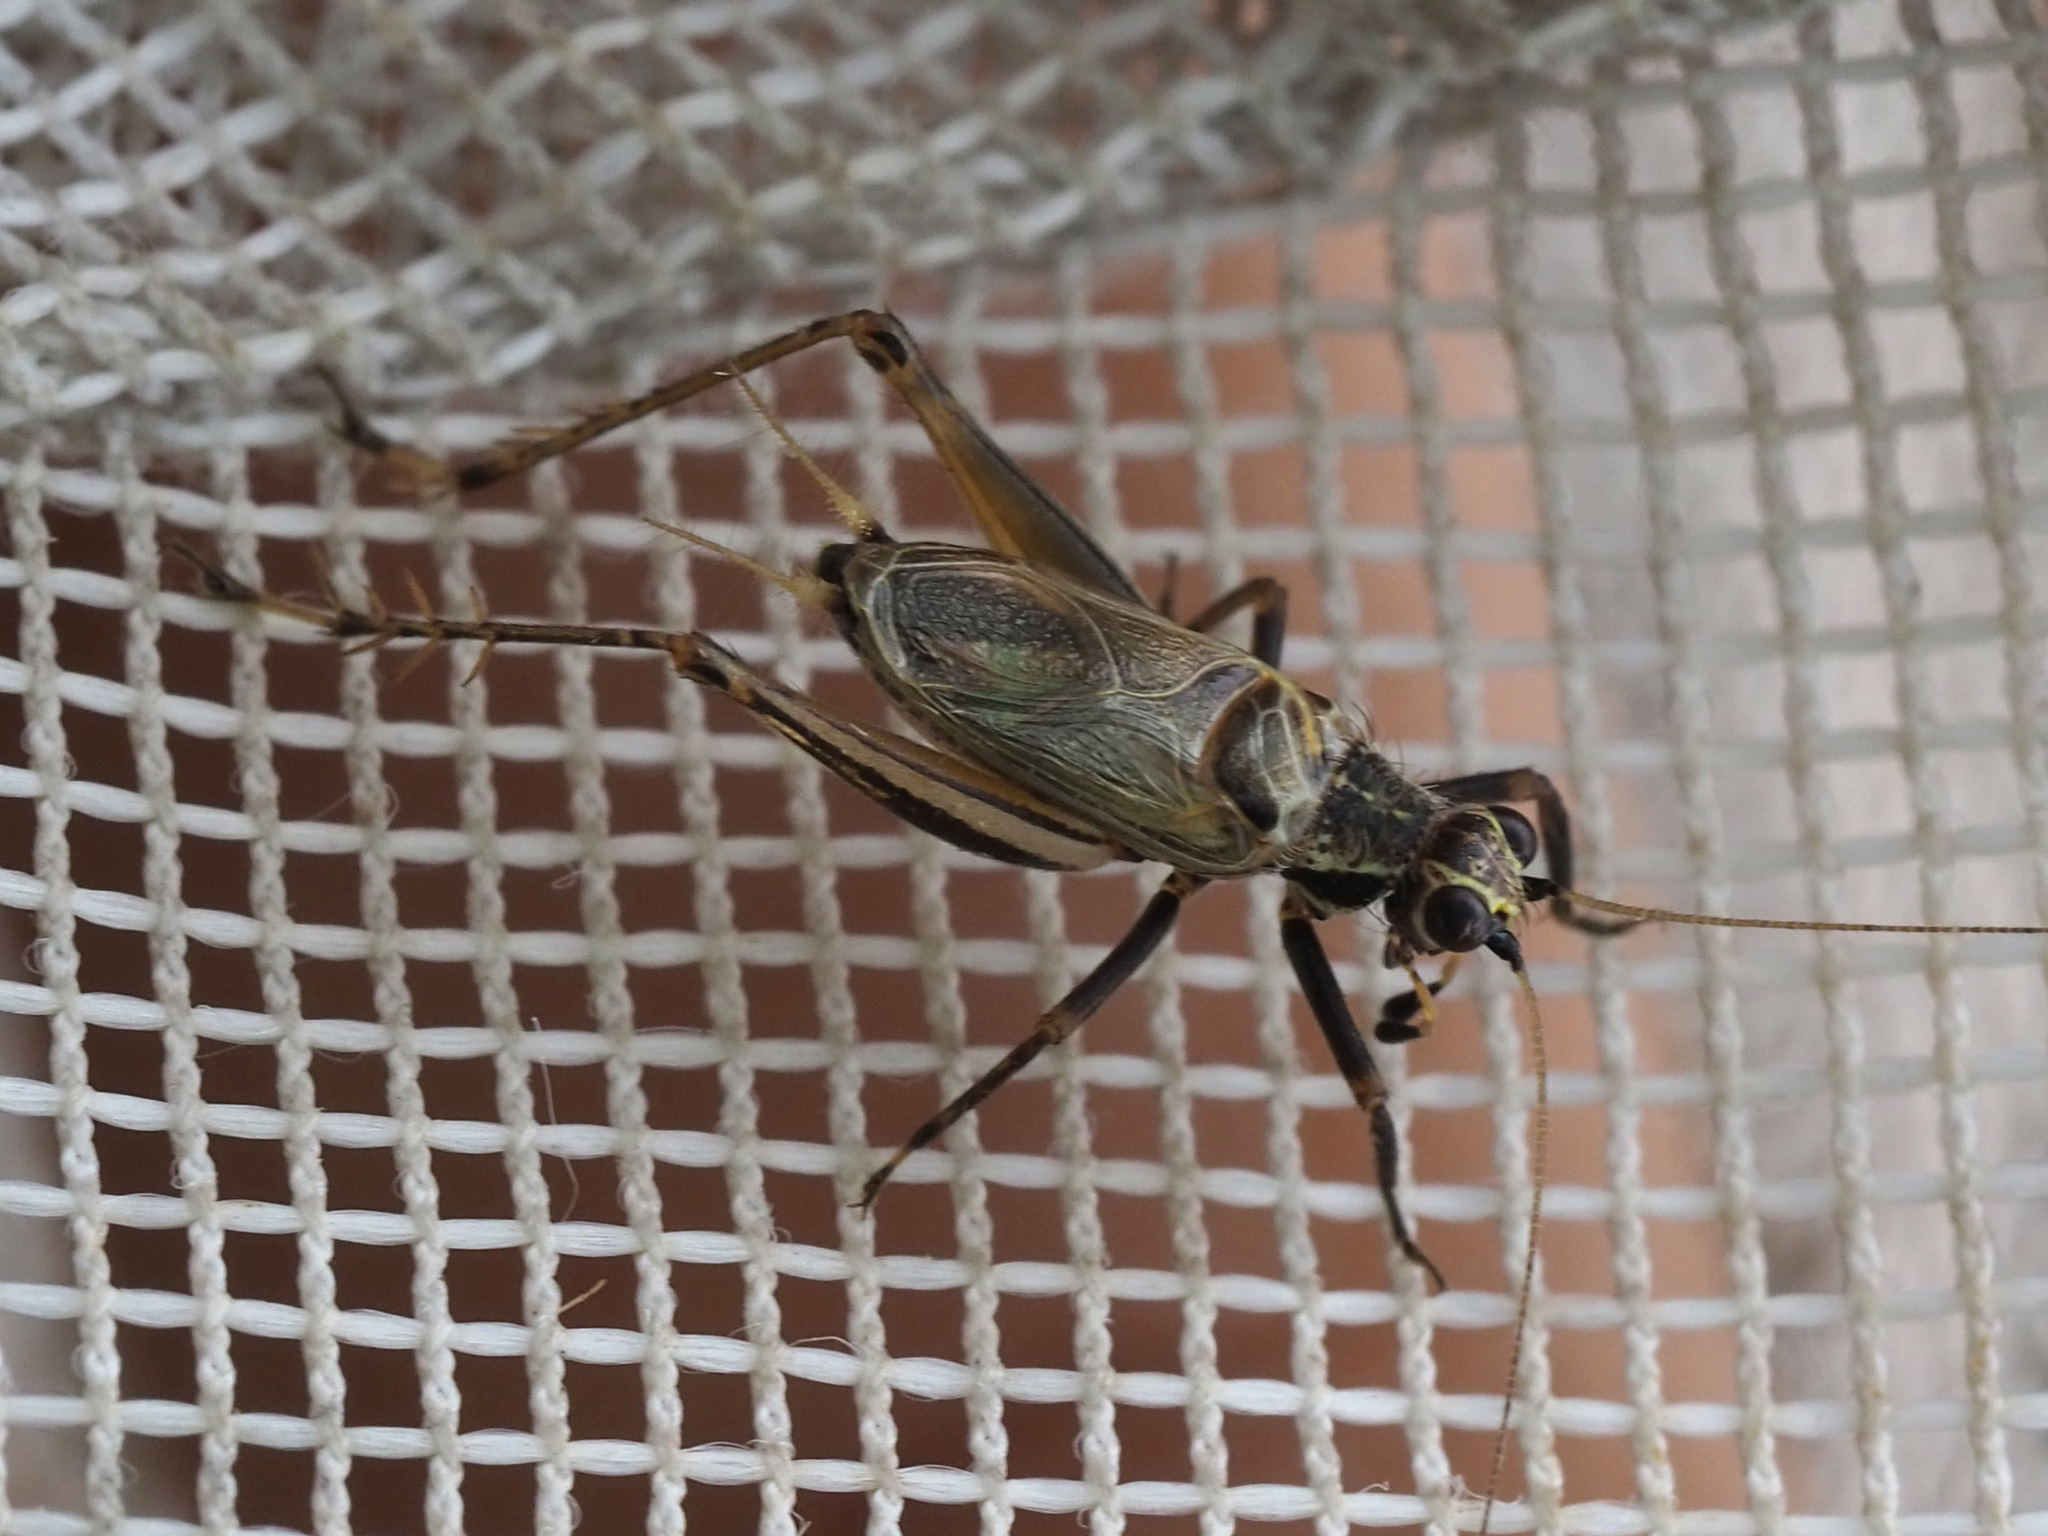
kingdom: Animalia
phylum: Arthropoda
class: Insecta
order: Orthoptera
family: Trigonidiidae
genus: Jarmilaxipha
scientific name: Jarmilaxipha ecuadorica
